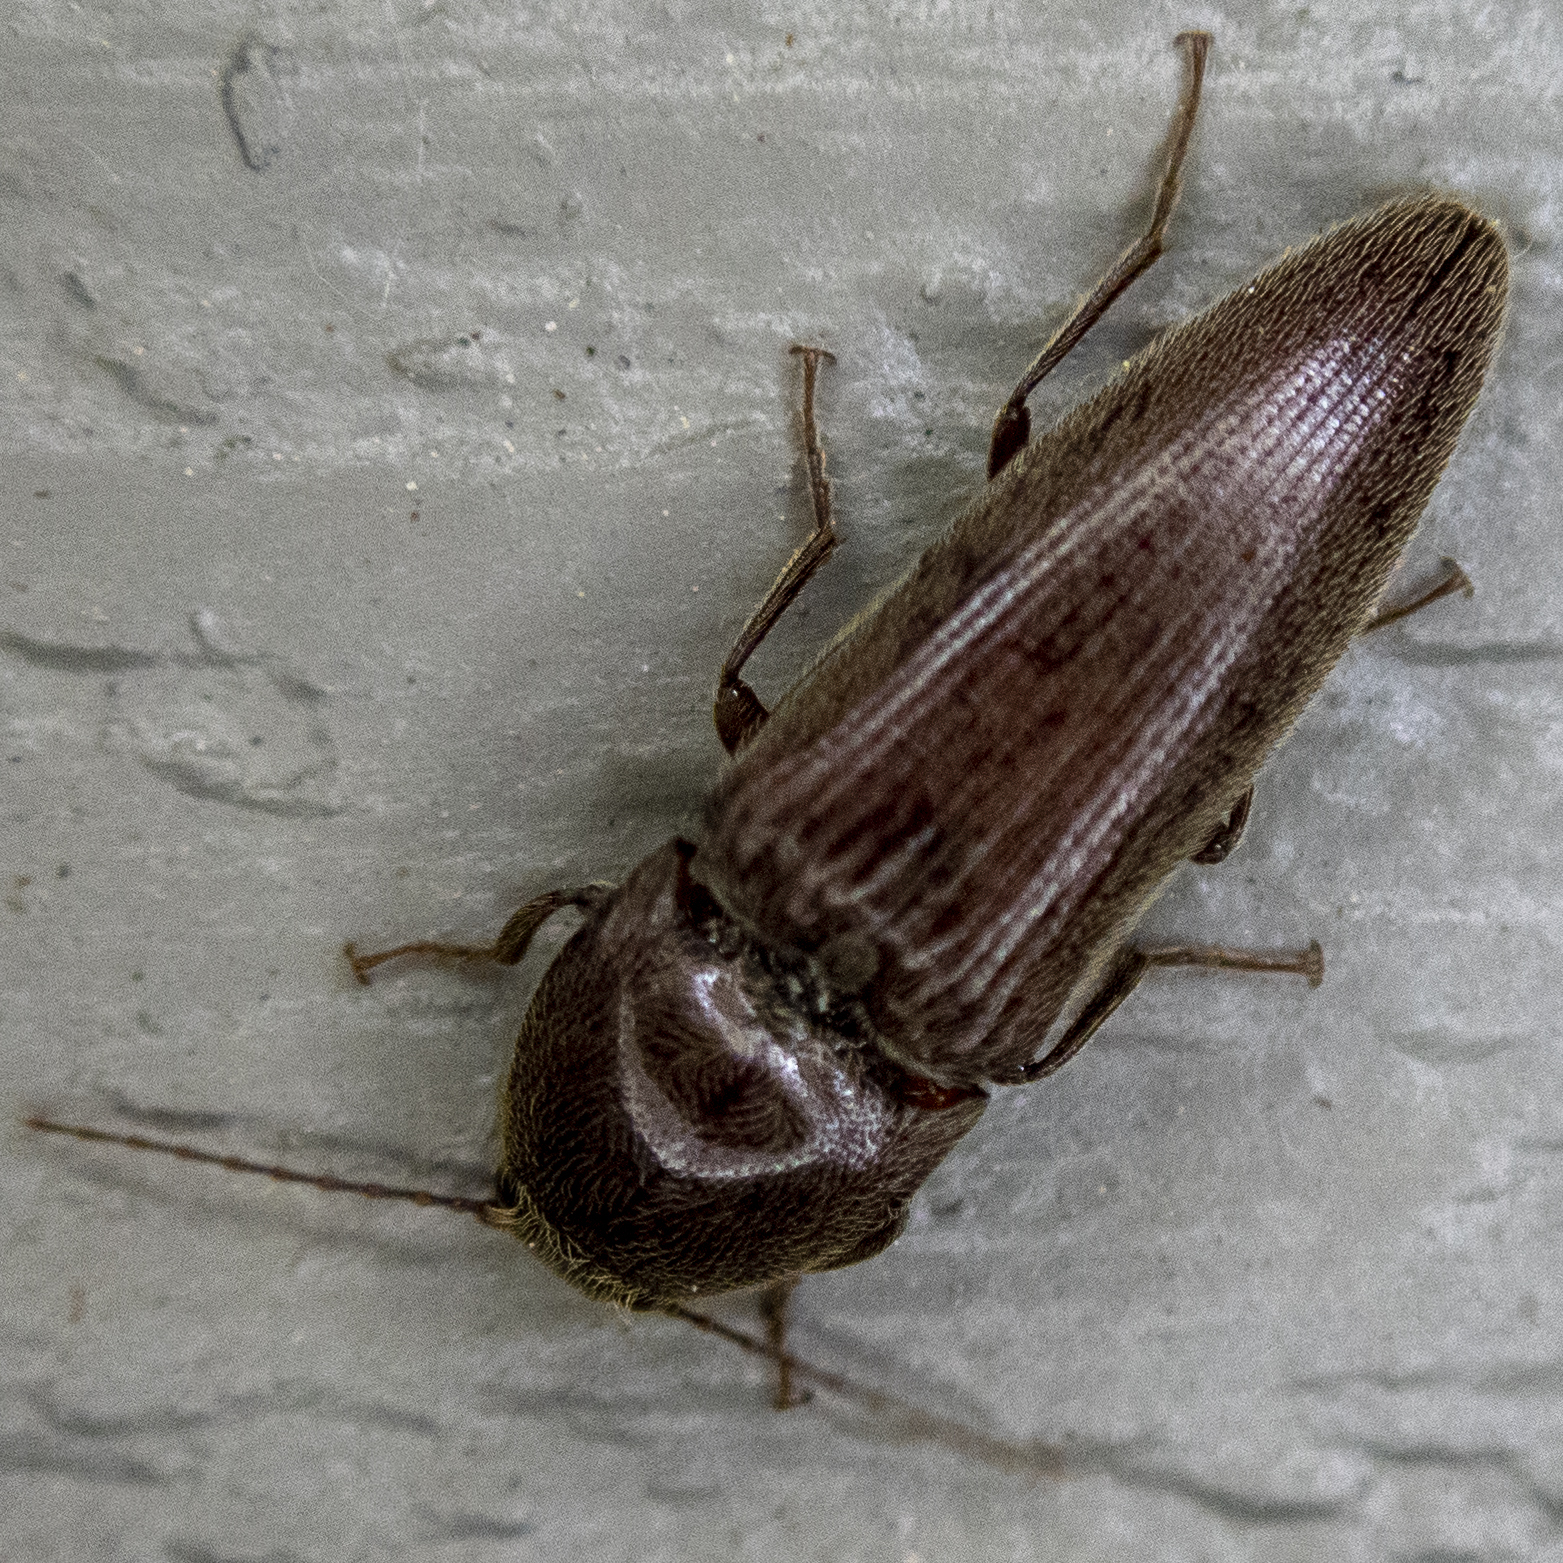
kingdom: Animalia
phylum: Arthropoda
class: Insecta
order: Coleoptera
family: Elateridae
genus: Melanotus
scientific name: Melanotus
